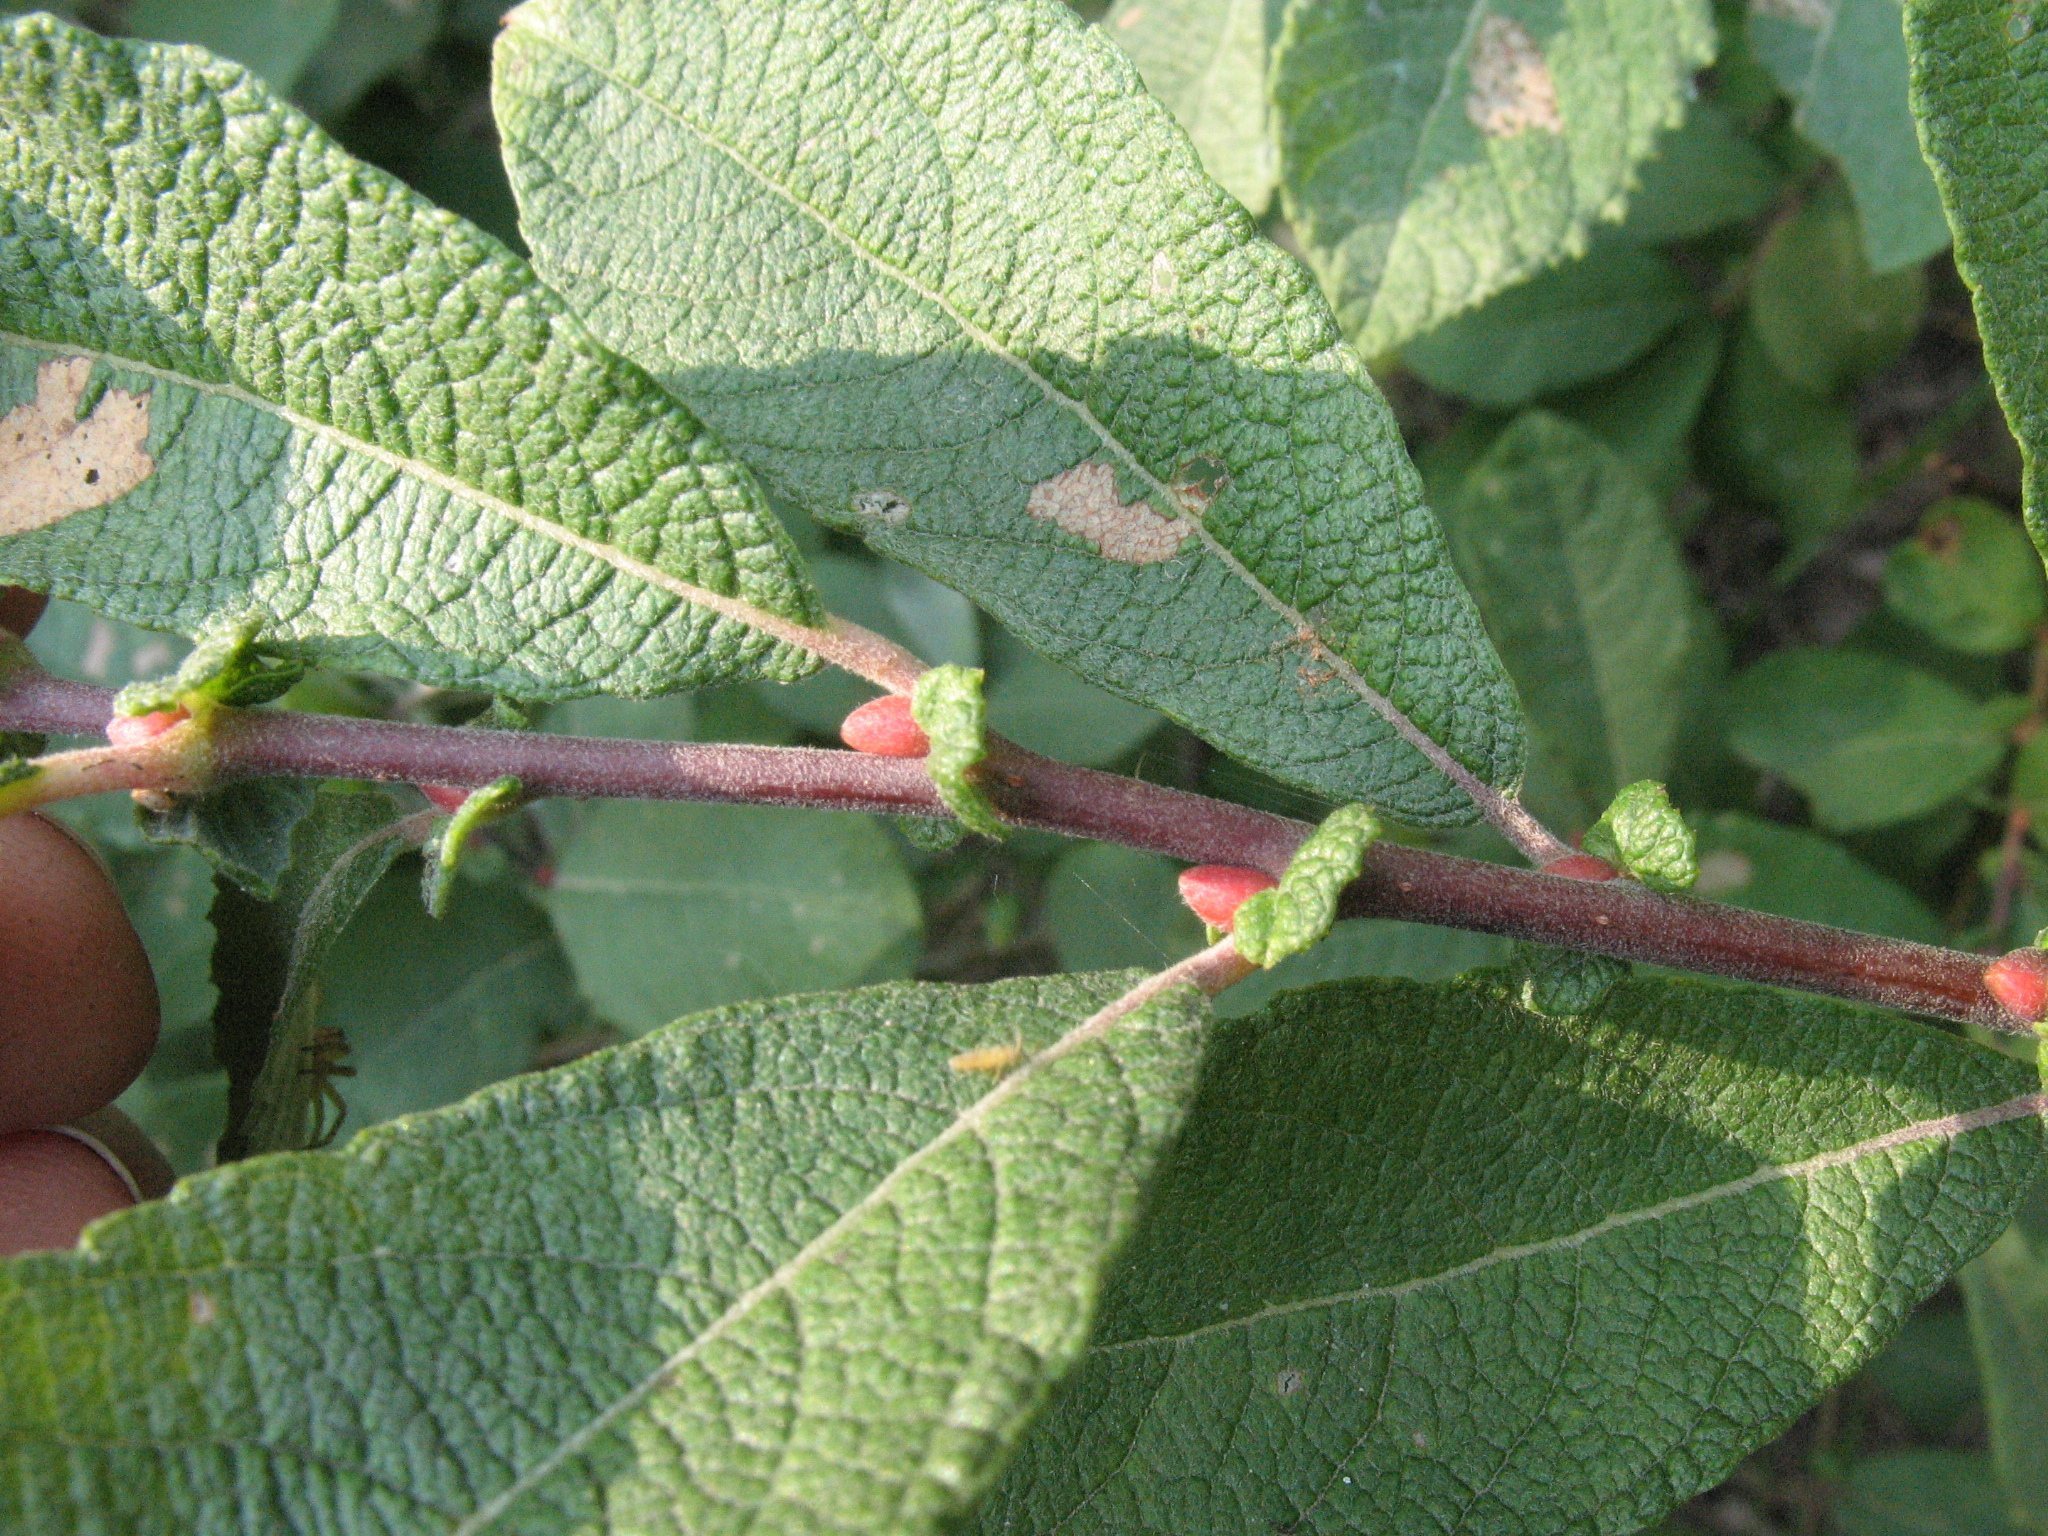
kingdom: Plantae
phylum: Tracheophyta
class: Magnoliopsida
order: Malpighiales
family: Salicaceae
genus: Salix
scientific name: Salix aurita
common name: Eared willow
